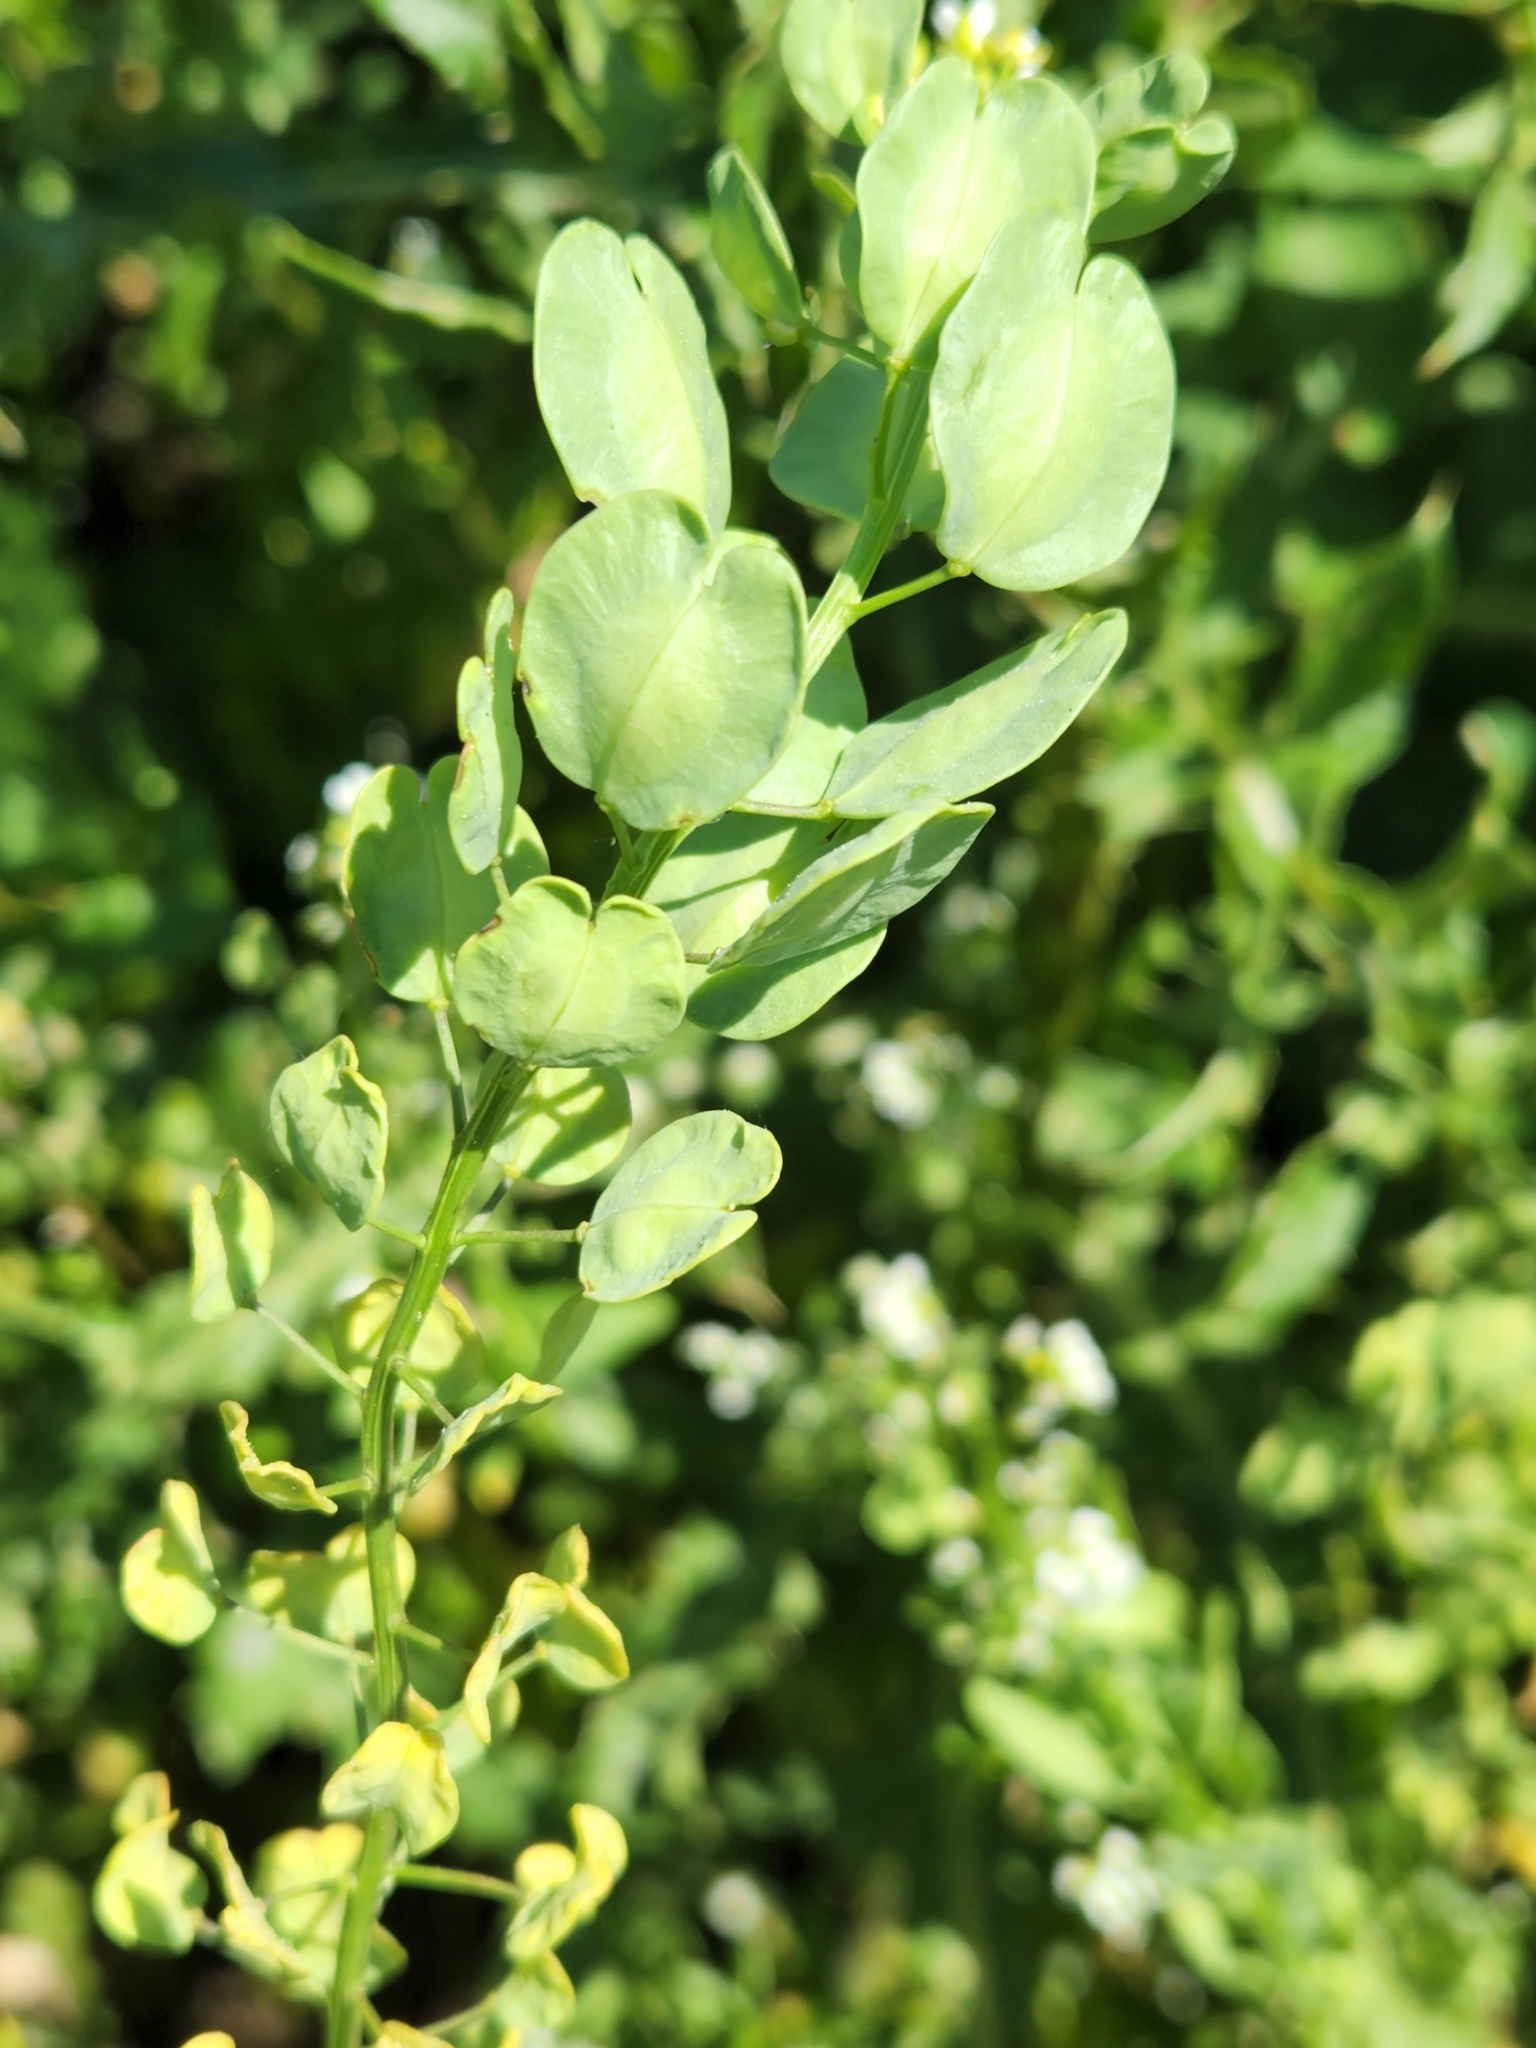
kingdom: Plantae
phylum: Tracheophyta
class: Magnoliopsida
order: Brassicales
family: Brassicaceae
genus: Thlaspi
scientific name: Thlaspi arvense
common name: Field pennycress
